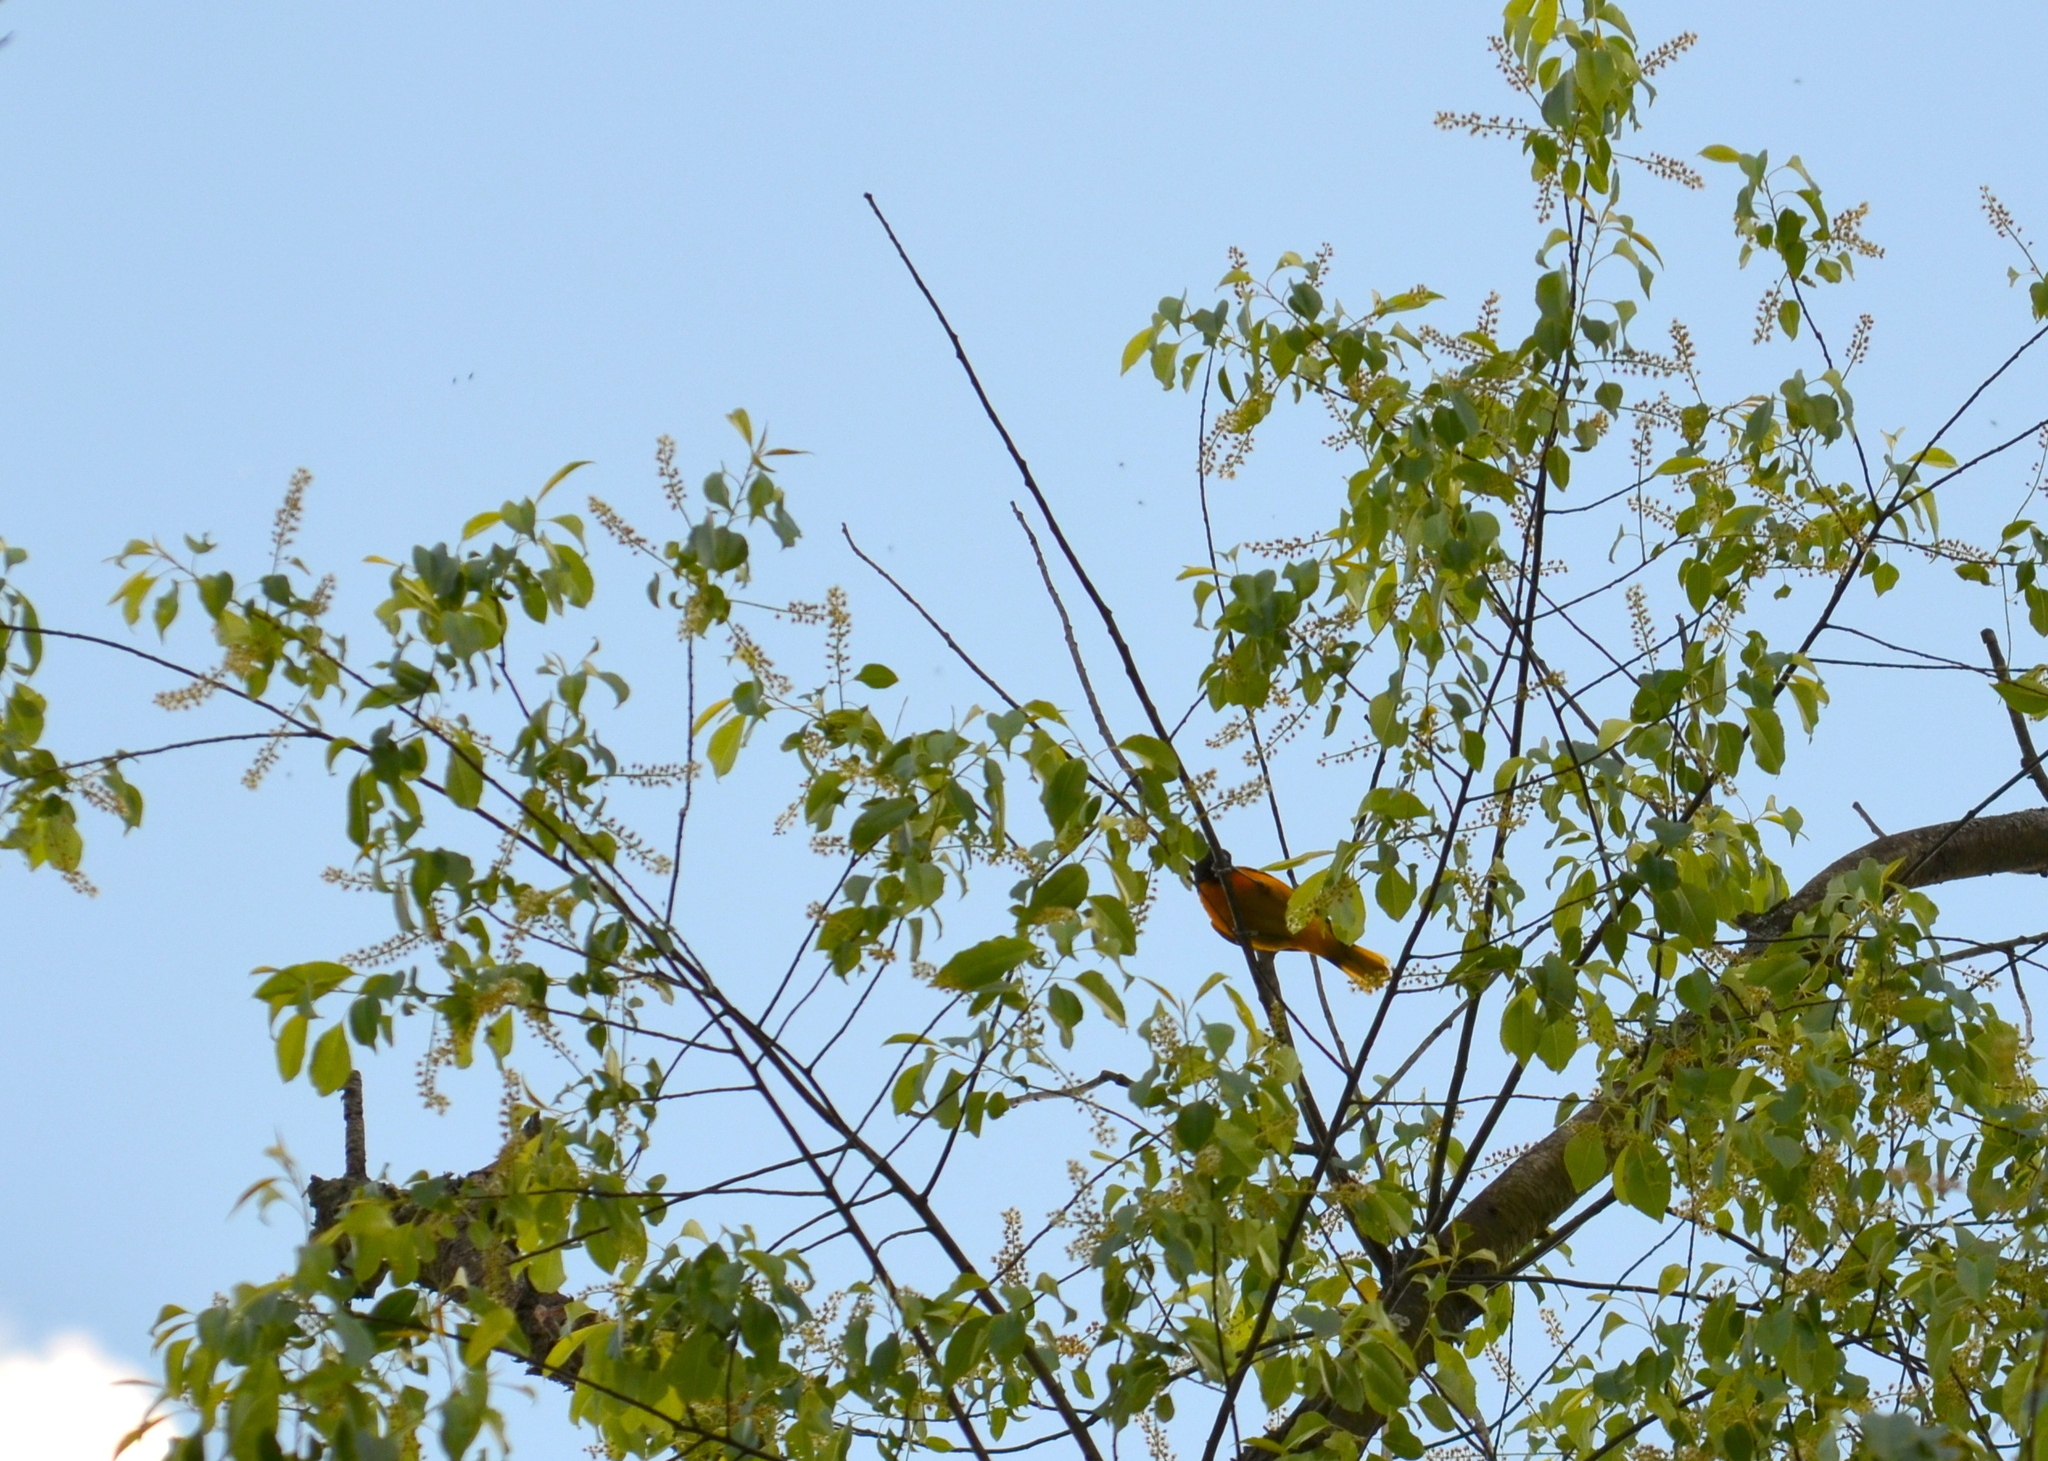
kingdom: Animalia
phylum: Chordata
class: Aves
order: Passeriformes
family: Icteridae
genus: Icterus
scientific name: Icterus galbula
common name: Baltimore oriole
